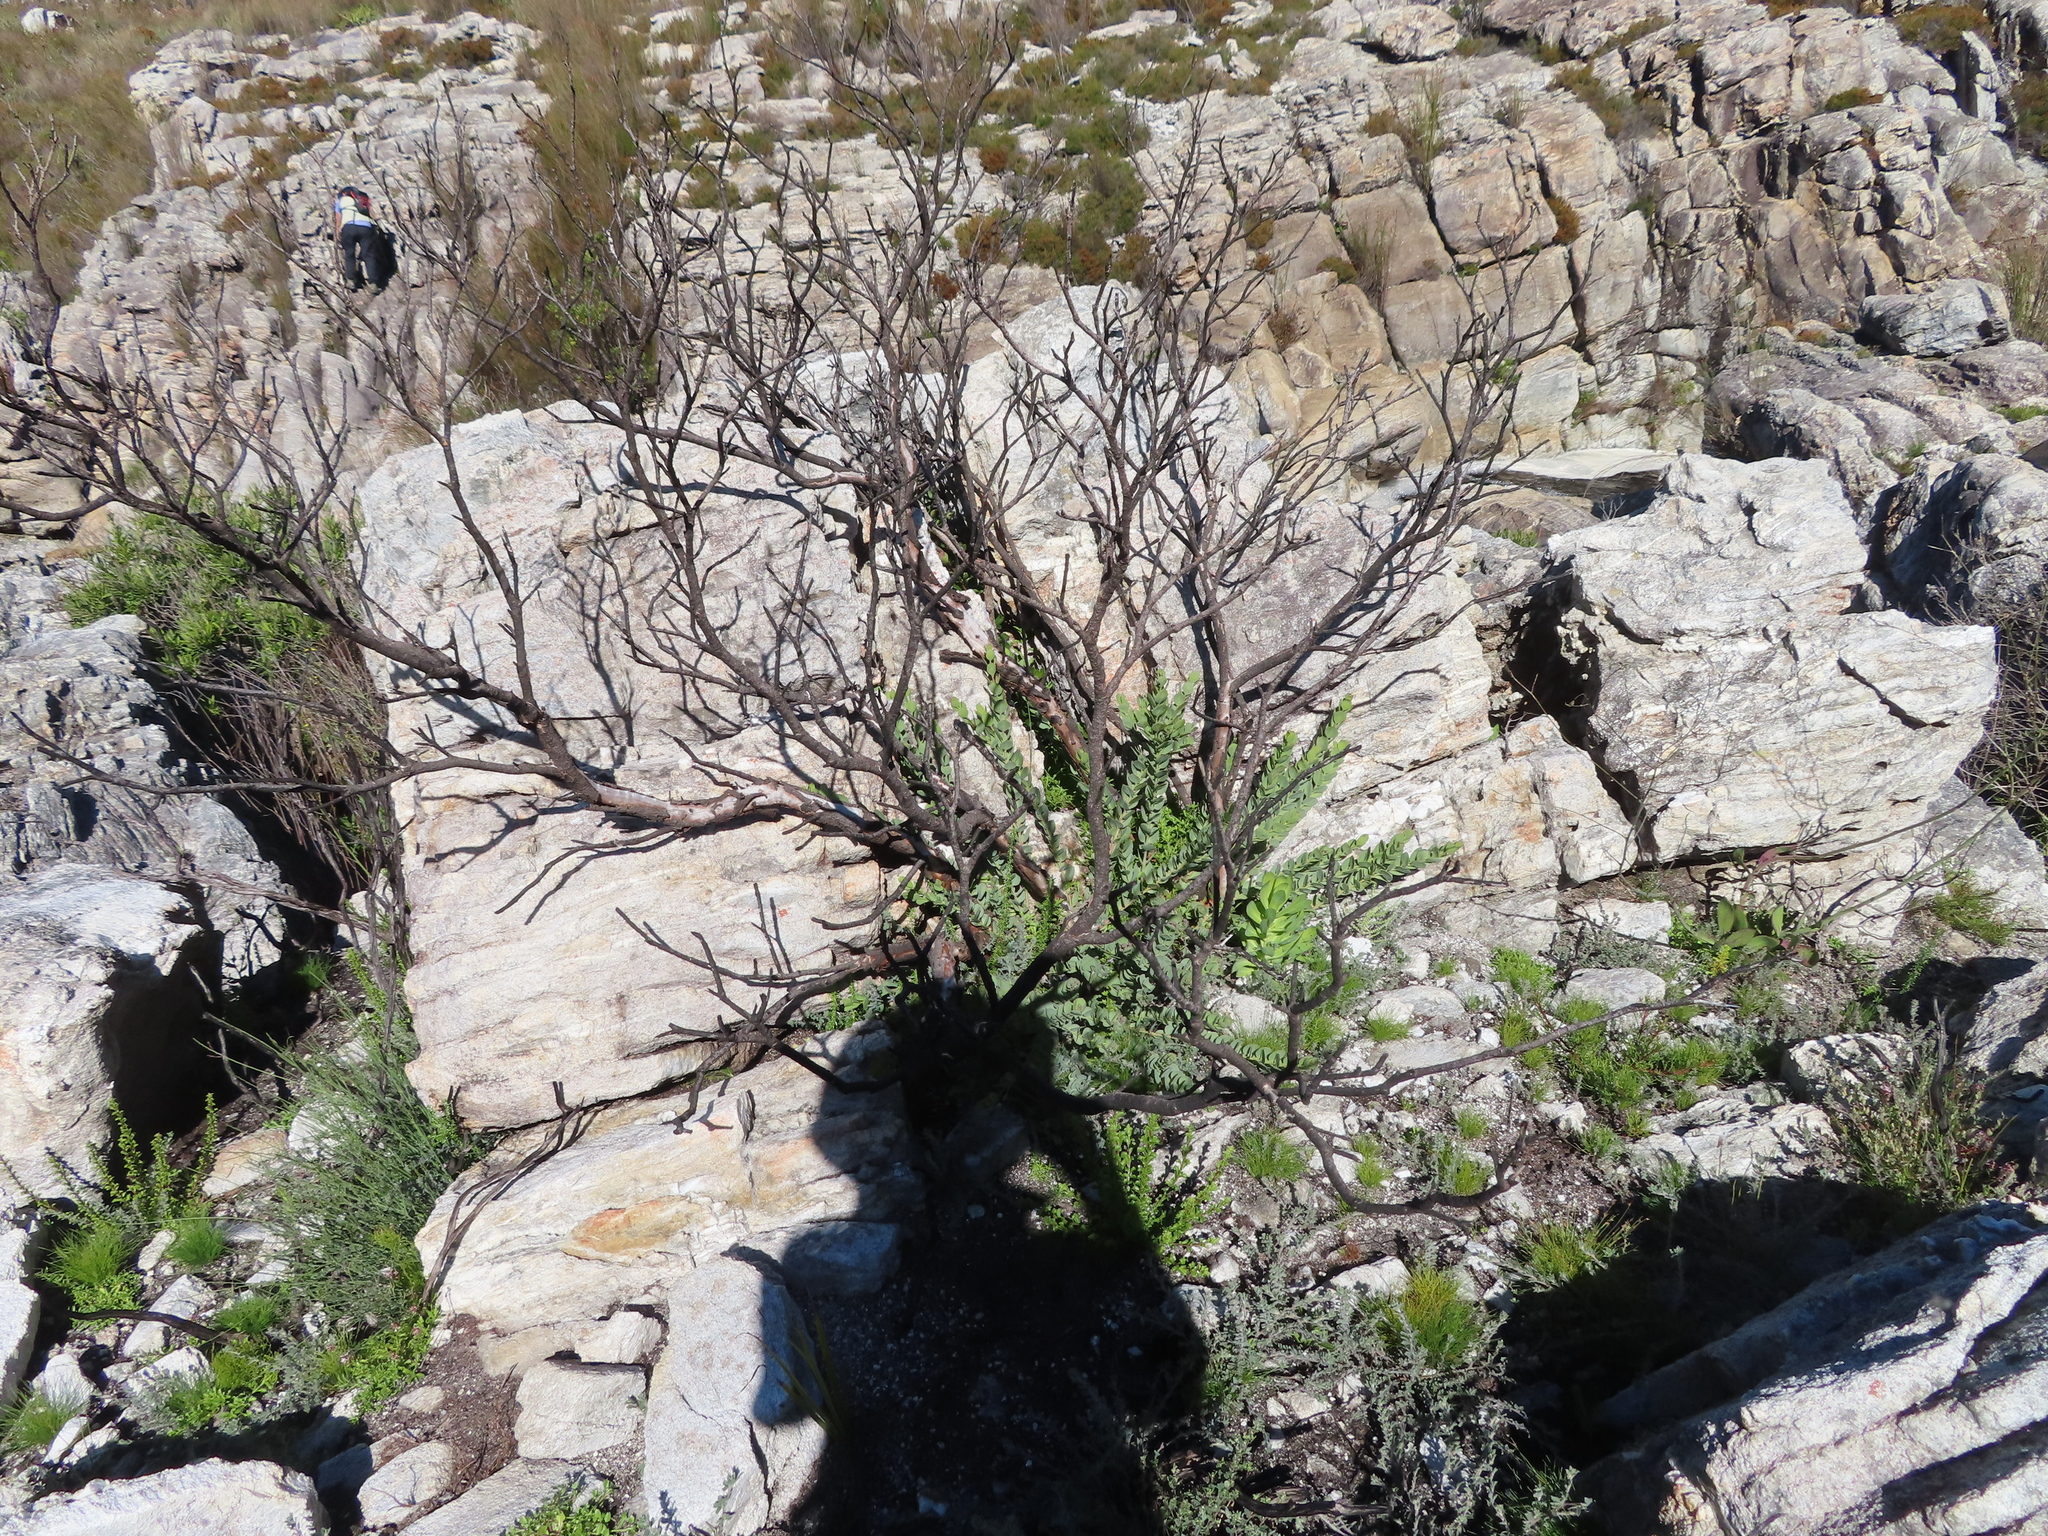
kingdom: Plantae
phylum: Tracheophyta
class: Magnoliopsida
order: Santalales
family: Santalaceae
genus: Osyris
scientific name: Osyris compressa
